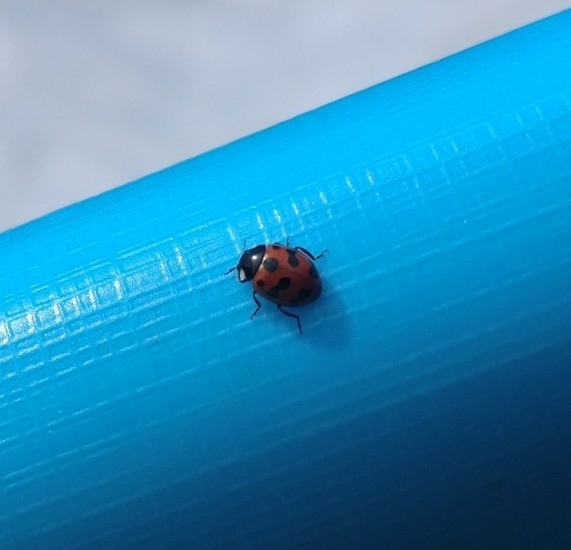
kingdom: Animalia
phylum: Arthropoda
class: Insecta
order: Coleoptera
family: Coccinellidae
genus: Coccinella
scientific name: Coccinella undecimpunctata
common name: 11-spot ladybird
